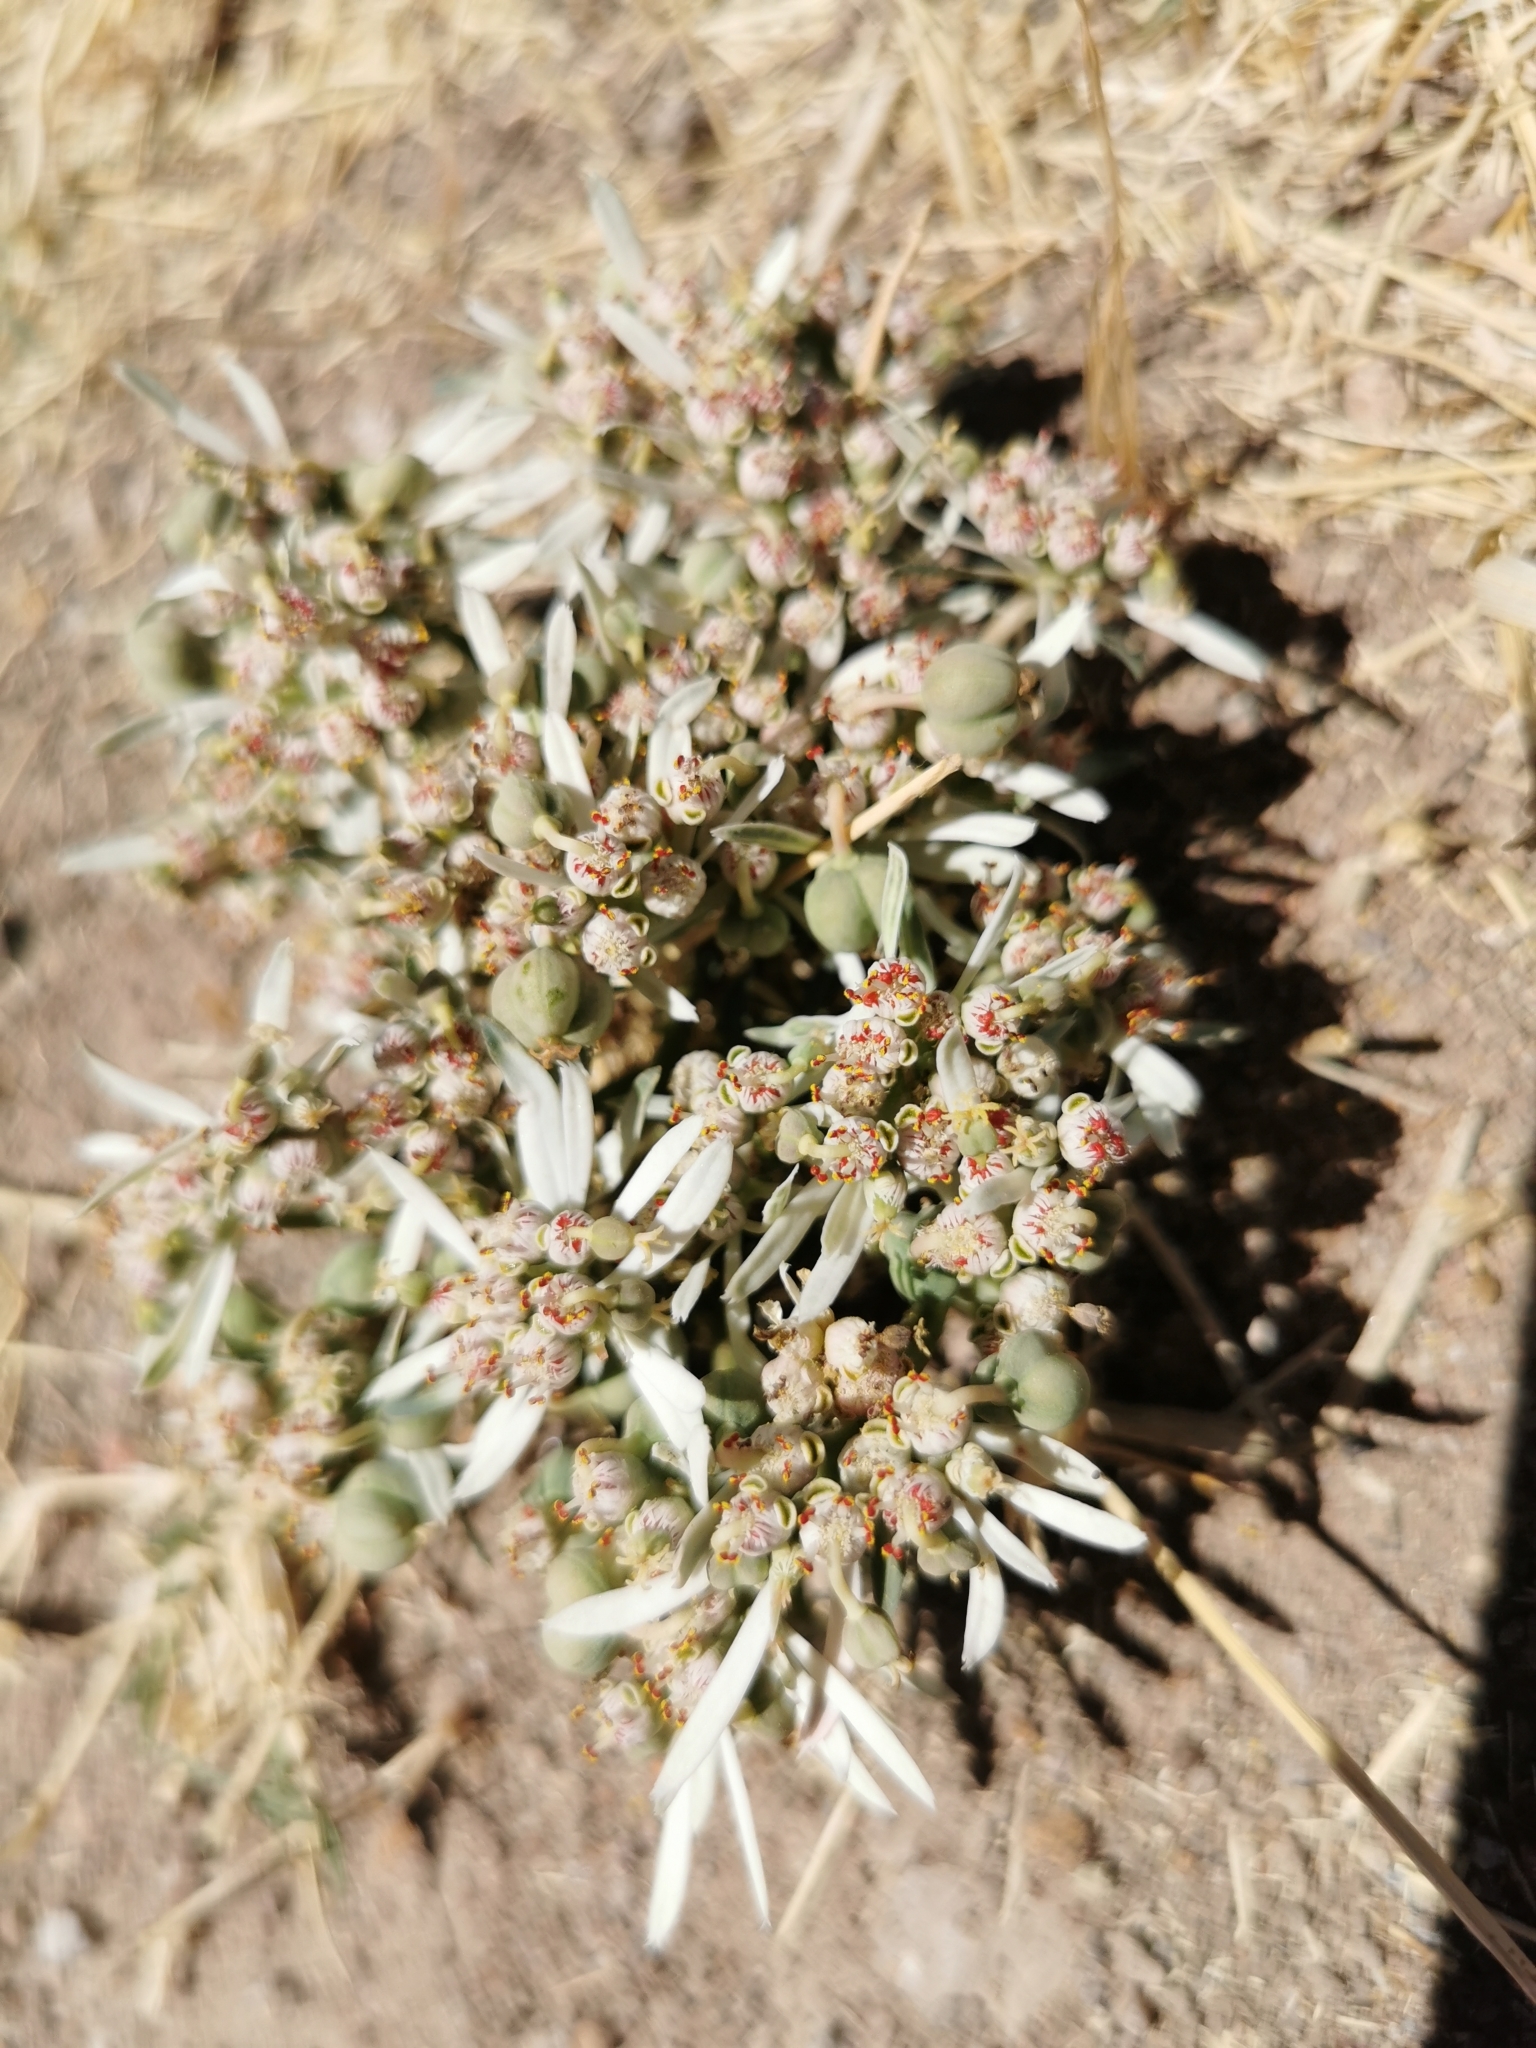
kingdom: Plantae
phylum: Tracheophyta
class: Magnoliopsida
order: Malpighiales
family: Euphorbiaceae
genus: Euphorbia
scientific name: Euphorbia radians
